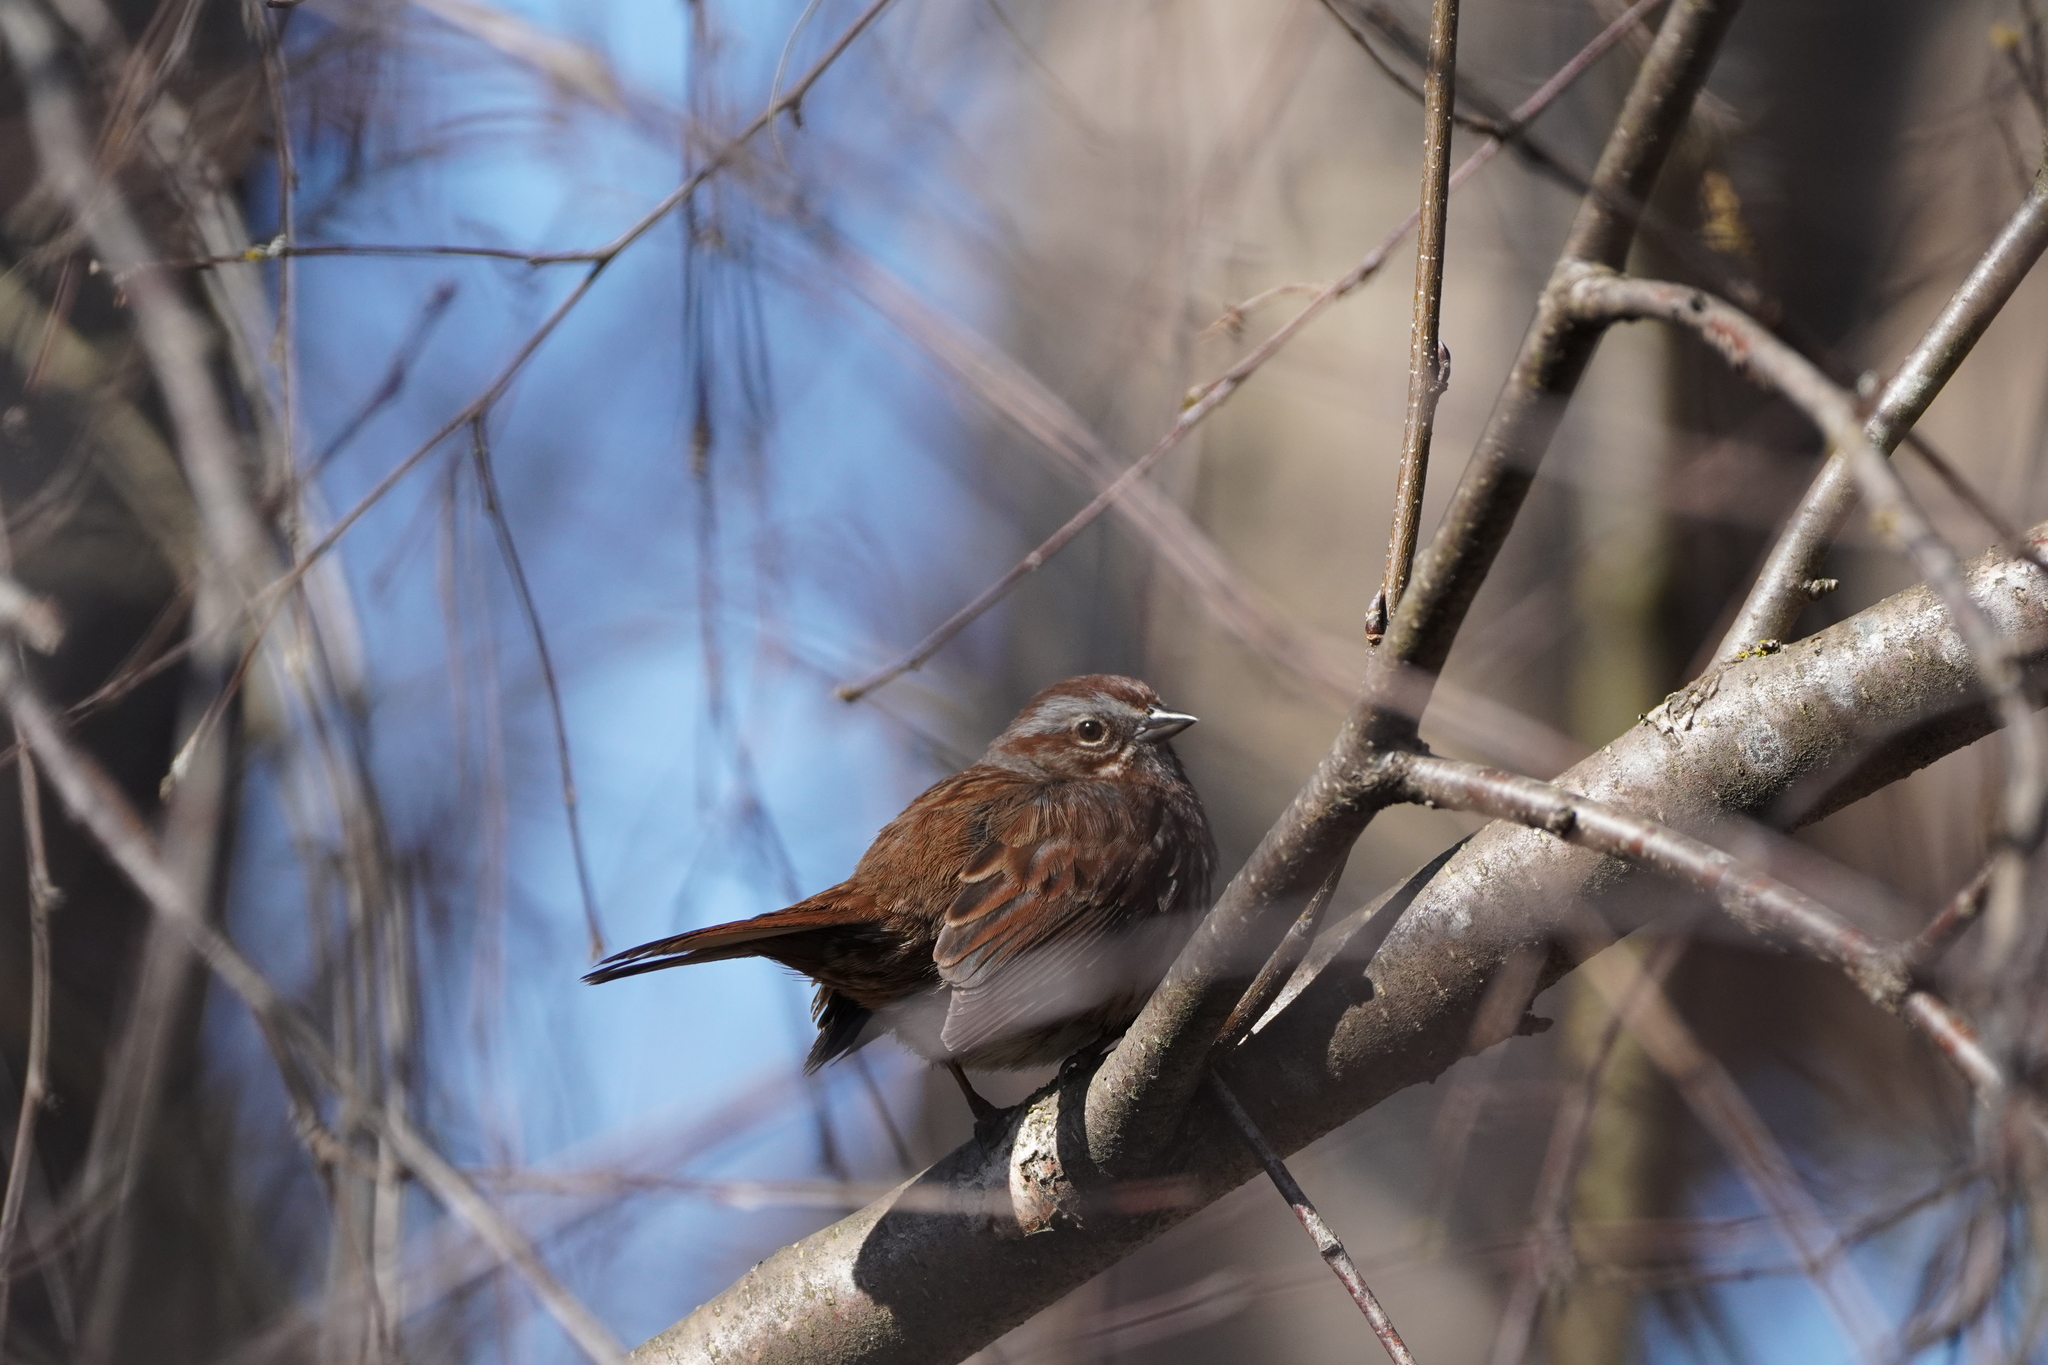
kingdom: Animalia
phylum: Chordata
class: Aves
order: Passeriformes
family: Passerellidae
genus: Melospiza
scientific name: Melospiza melodia
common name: Song sparrow
